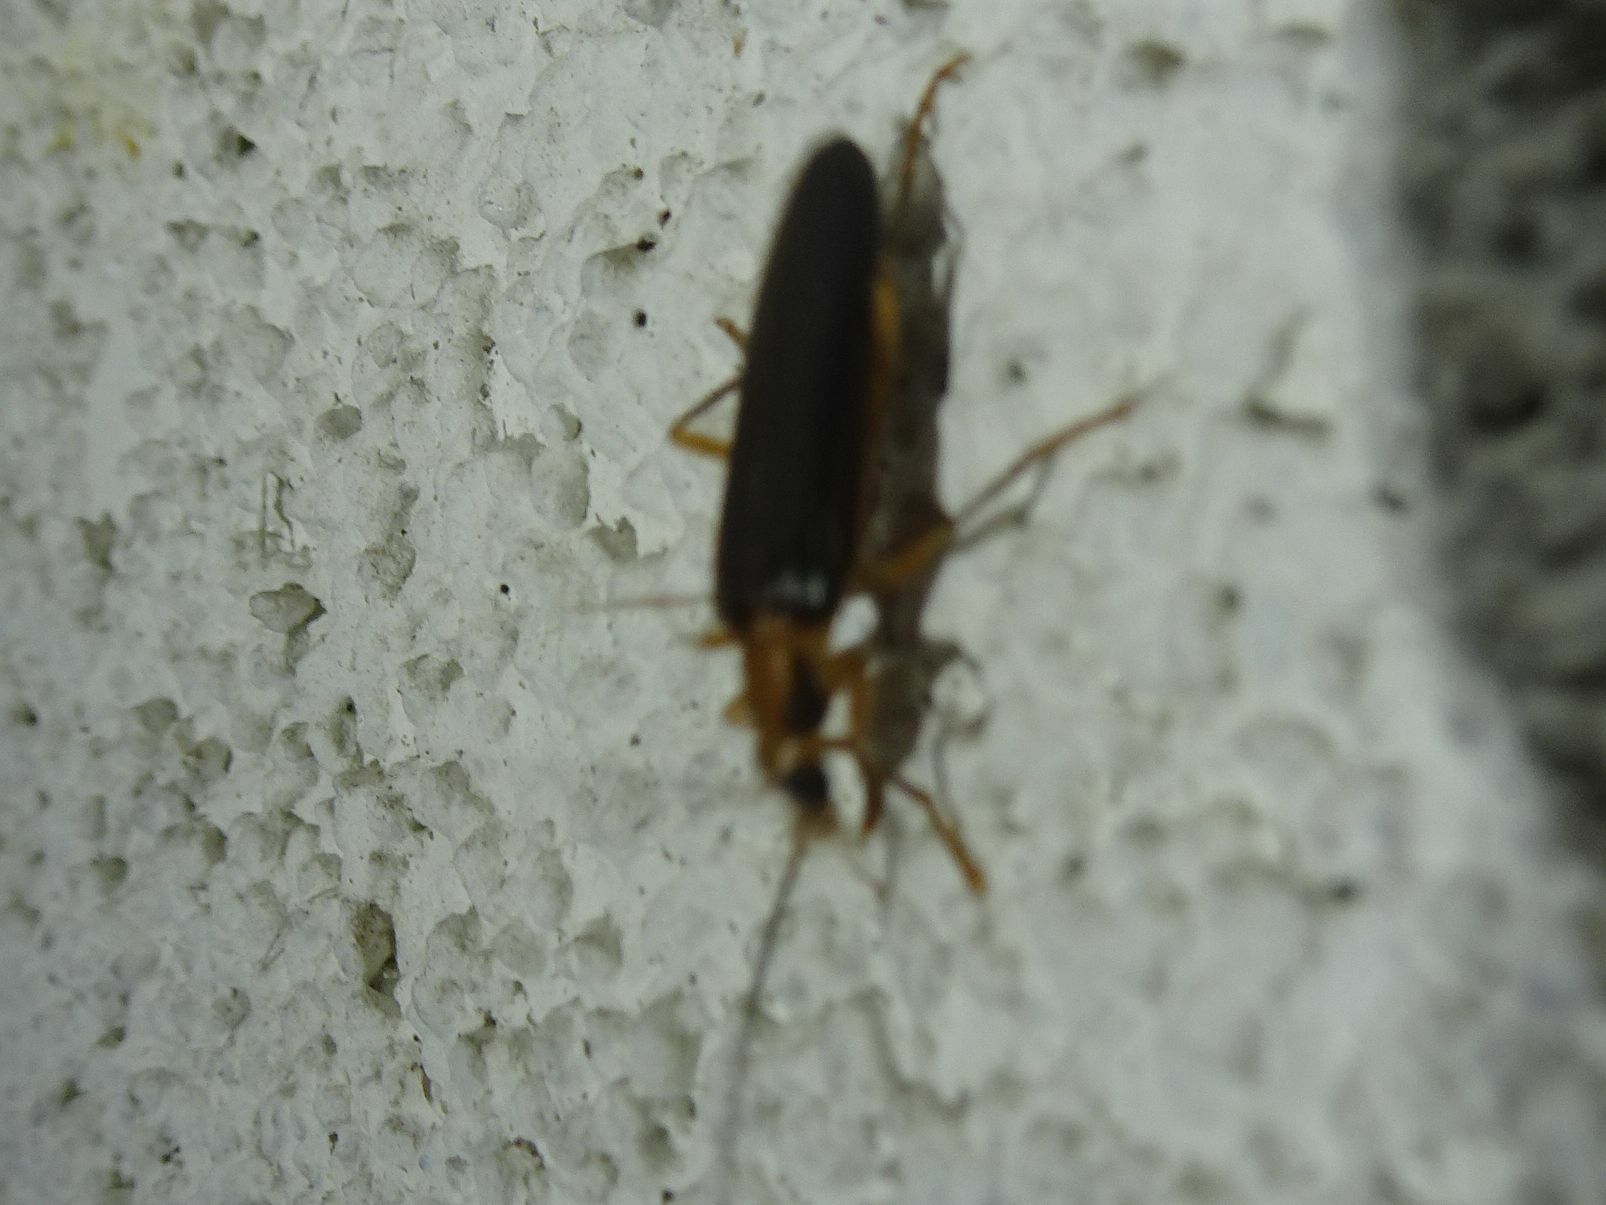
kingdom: Animalia
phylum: Arthropoda
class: Insecta
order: Coleoptera
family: Oedemeridae
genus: Nacerdes
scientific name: Nacerdes carniolica
